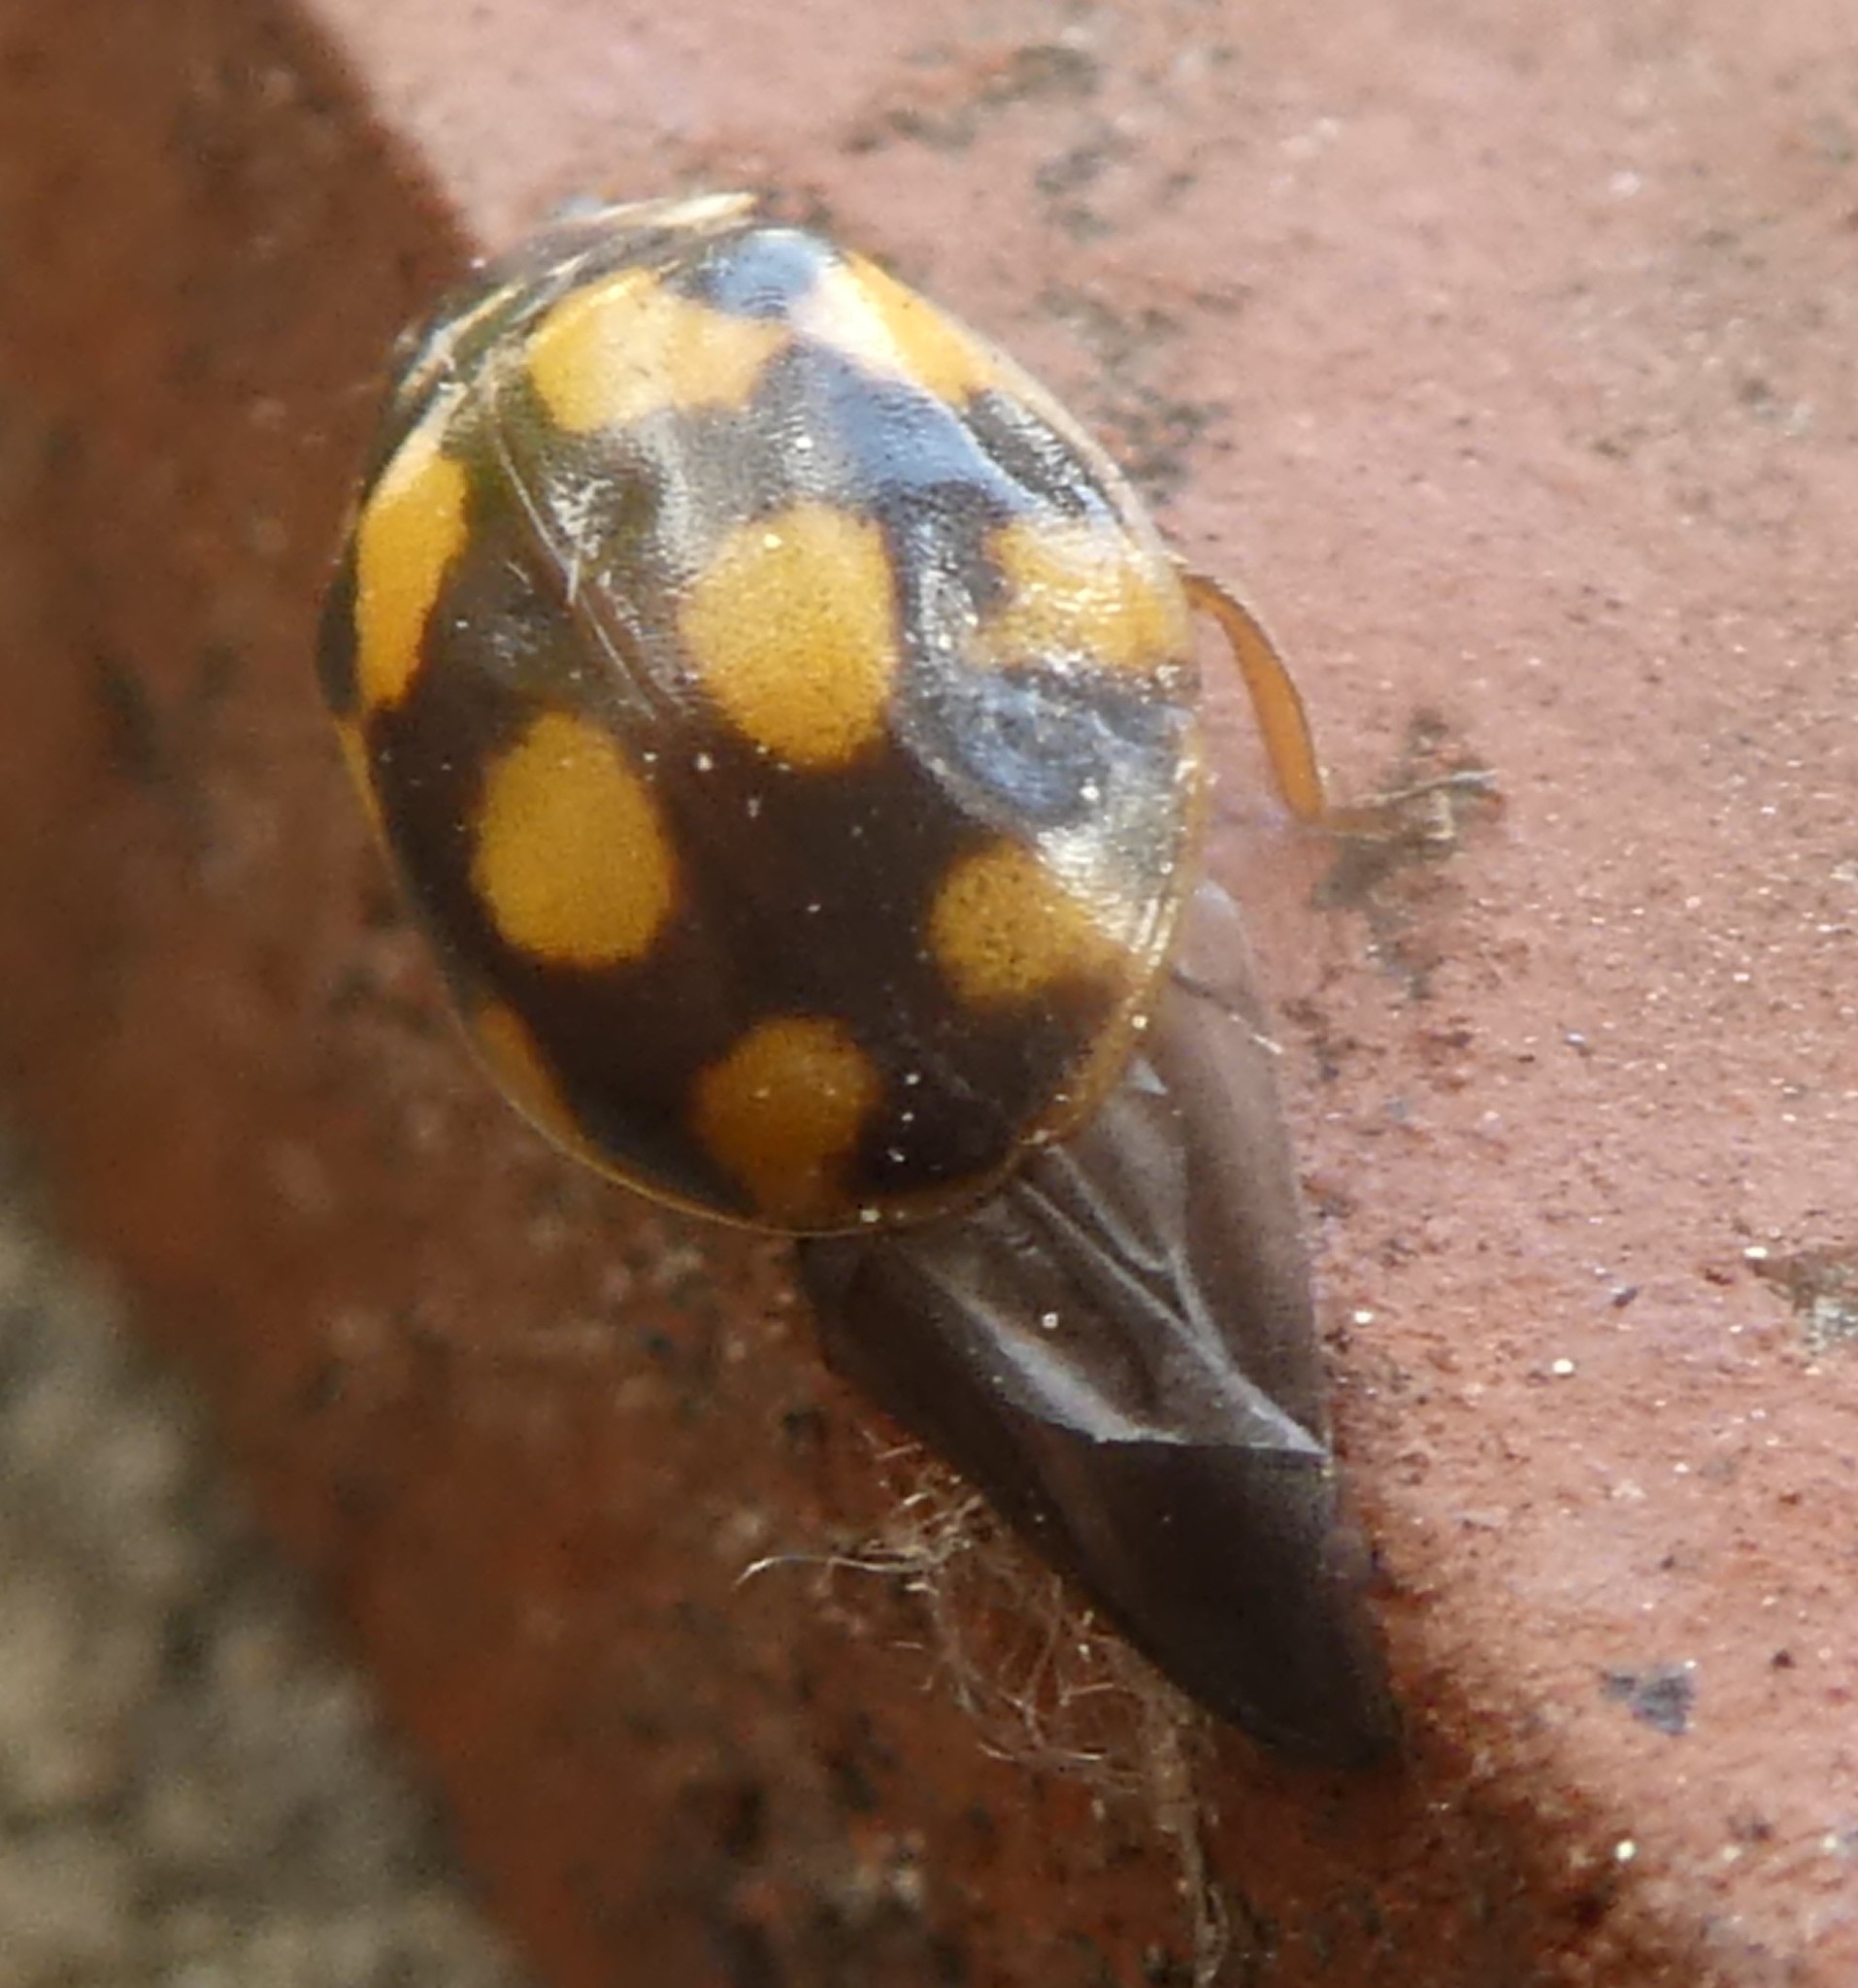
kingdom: Animalia
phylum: Arthropoda
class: Insecta
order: Coleoptera
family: Coccinellidae
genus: Adalia
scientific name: Adalia decempunctata
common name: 10-spot ladybird
